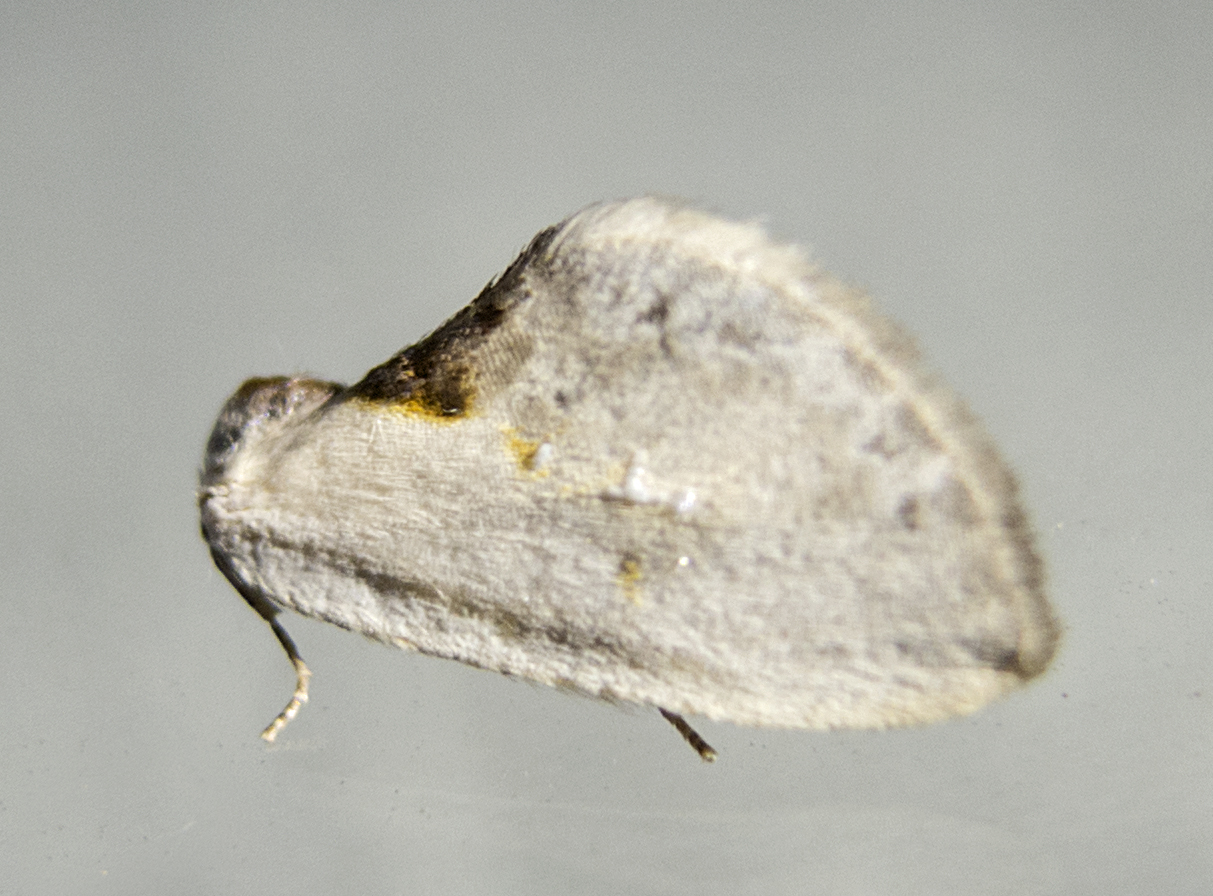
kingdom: Animalia
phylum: Arthropoda
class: Insecta
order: Lepidoptera
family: Drepanidae
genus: Cilix
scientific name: Cilix
